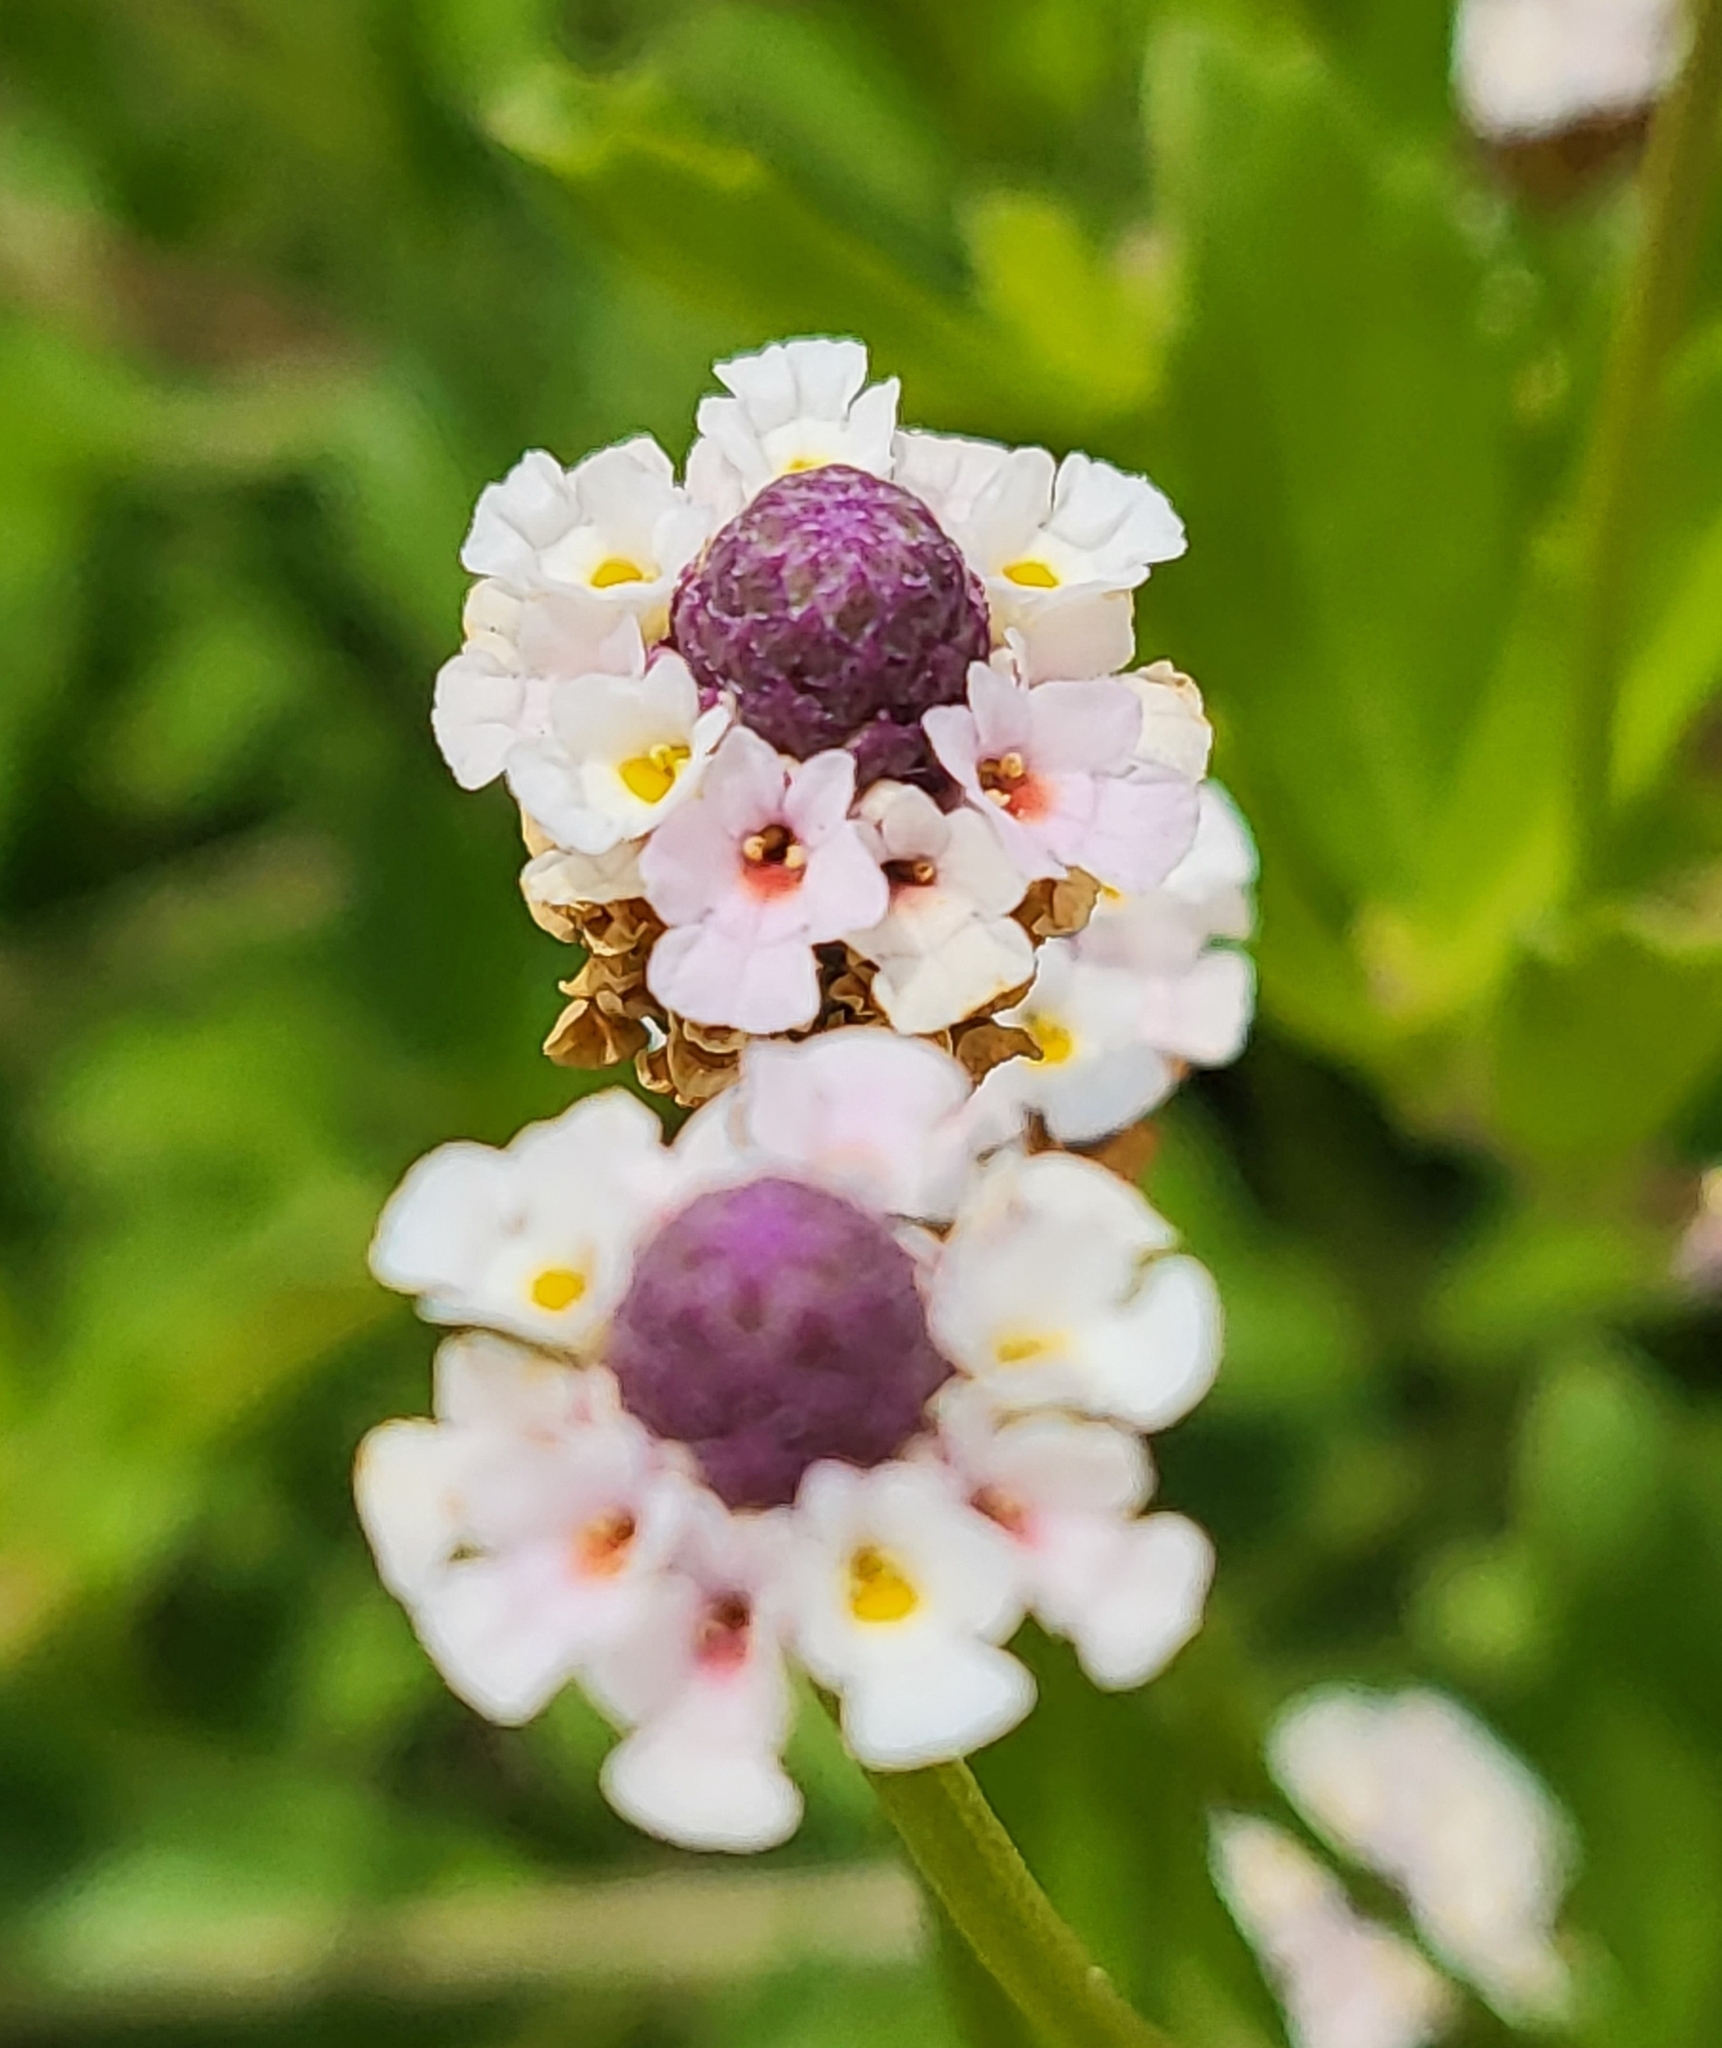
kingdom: Plantae
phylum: Tracheophyta
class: Magnoliopsida
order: Lamiales
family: Verbenaceae
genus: Phyla
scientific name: Phyla nodiflora
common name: Frogfruit
